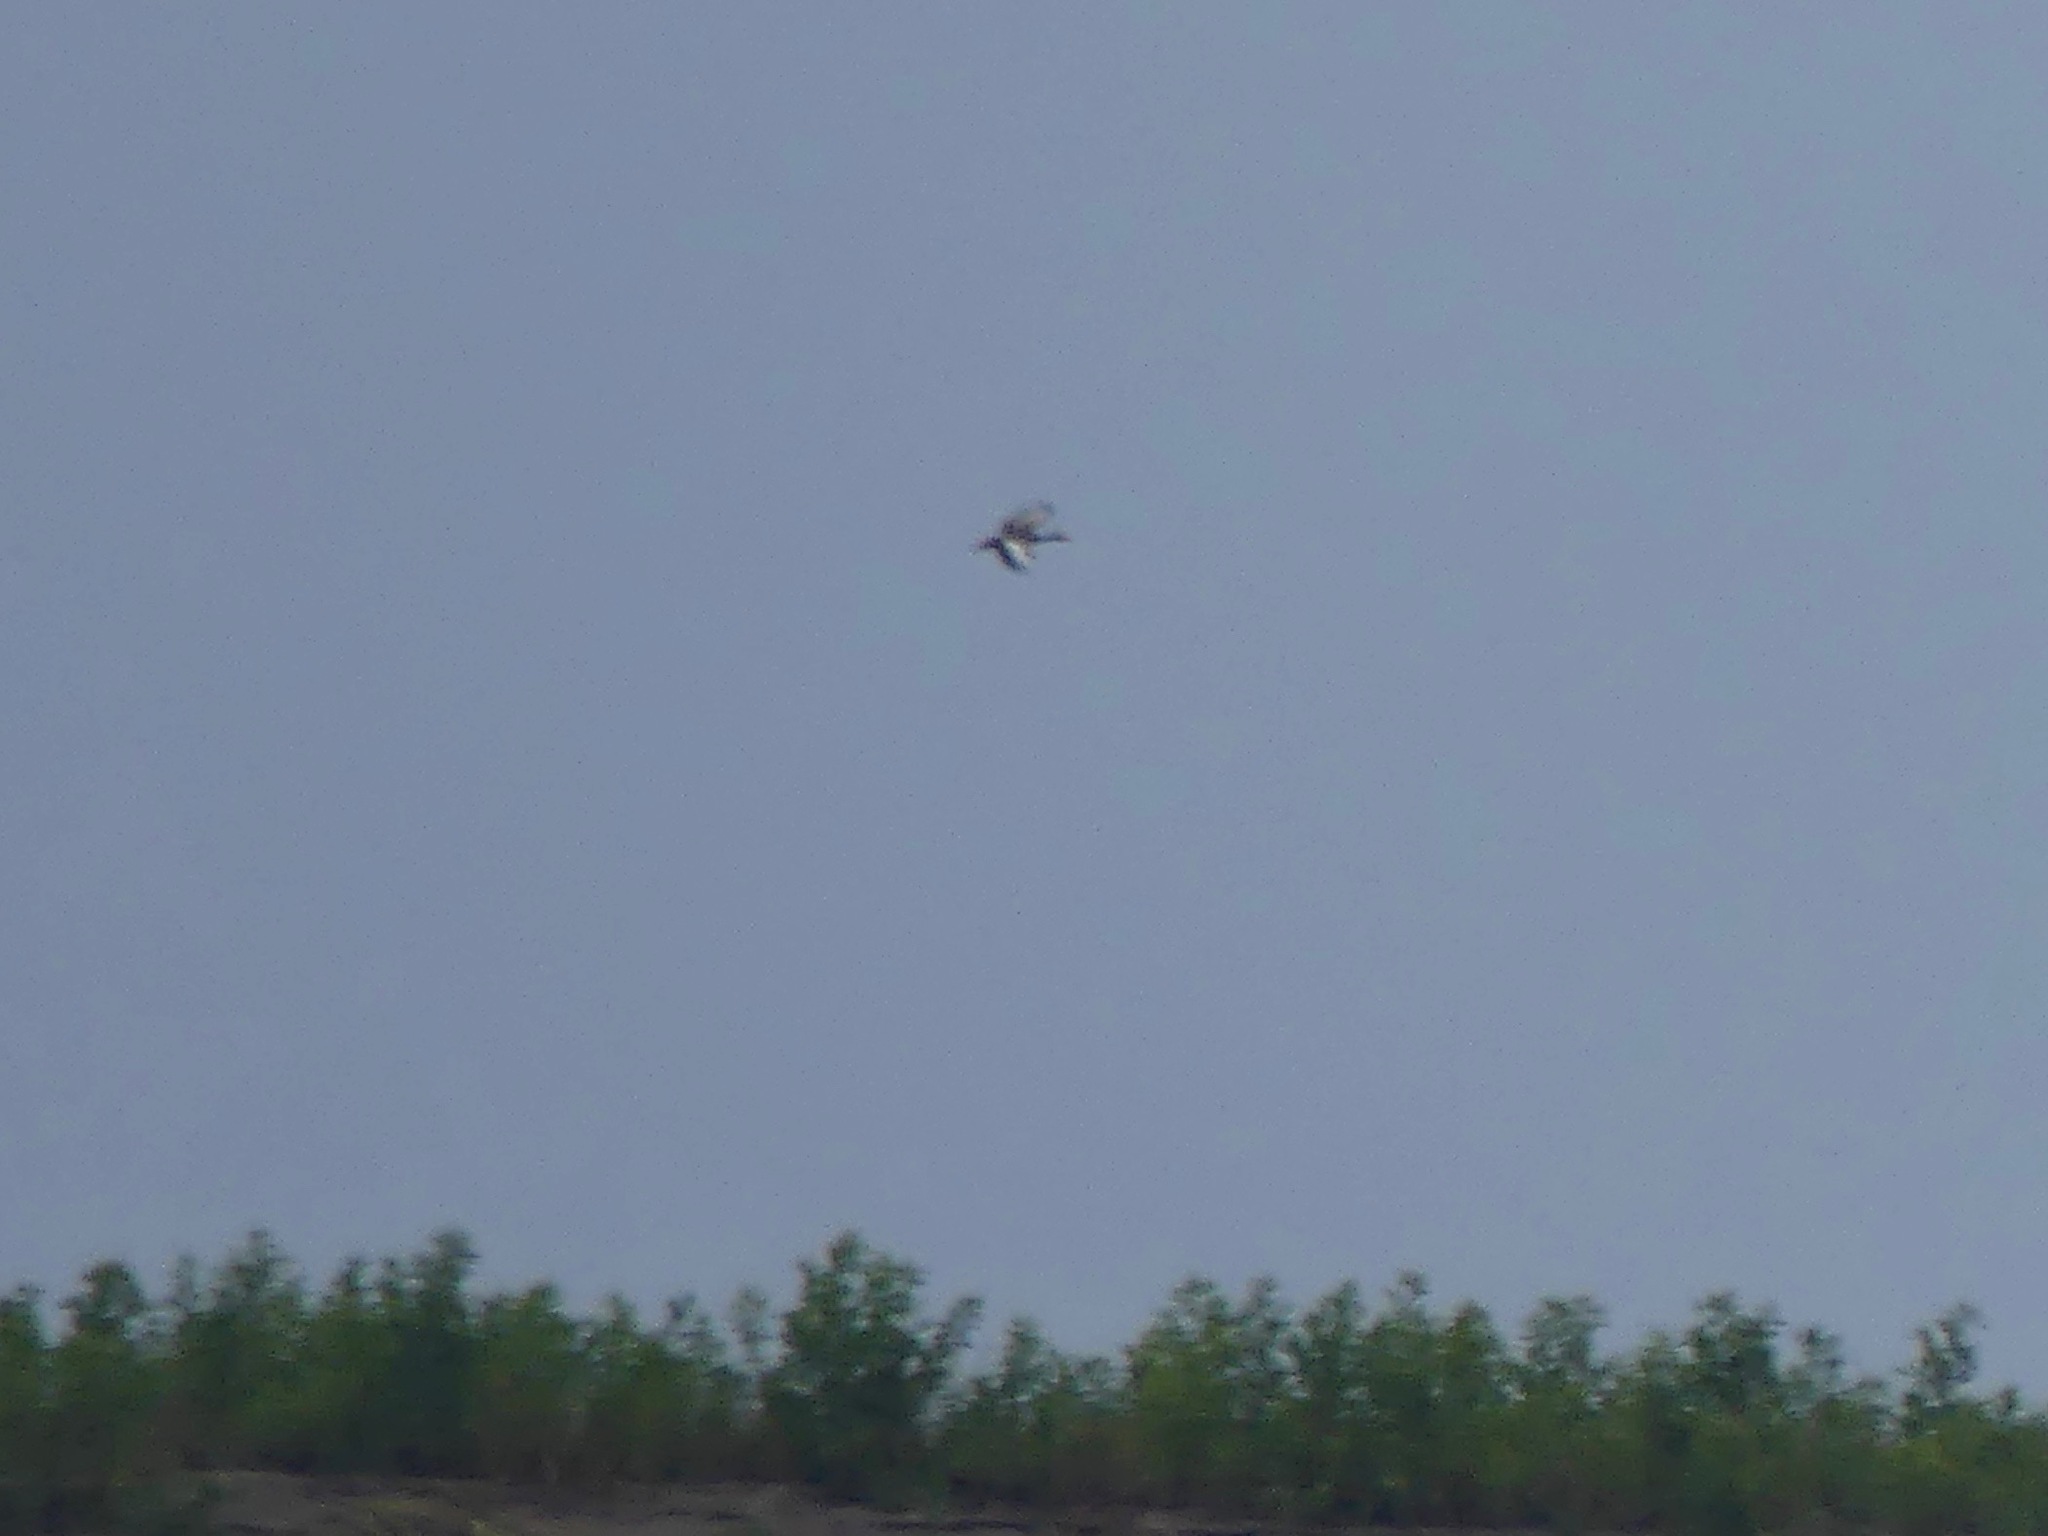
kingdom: Animalia
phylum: Chordata
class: Aves
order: Anseriformes
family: Anatidae
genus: Dendrocygna
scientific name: Dendrocygna autumnalis
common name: Black-bellied whistling duck
